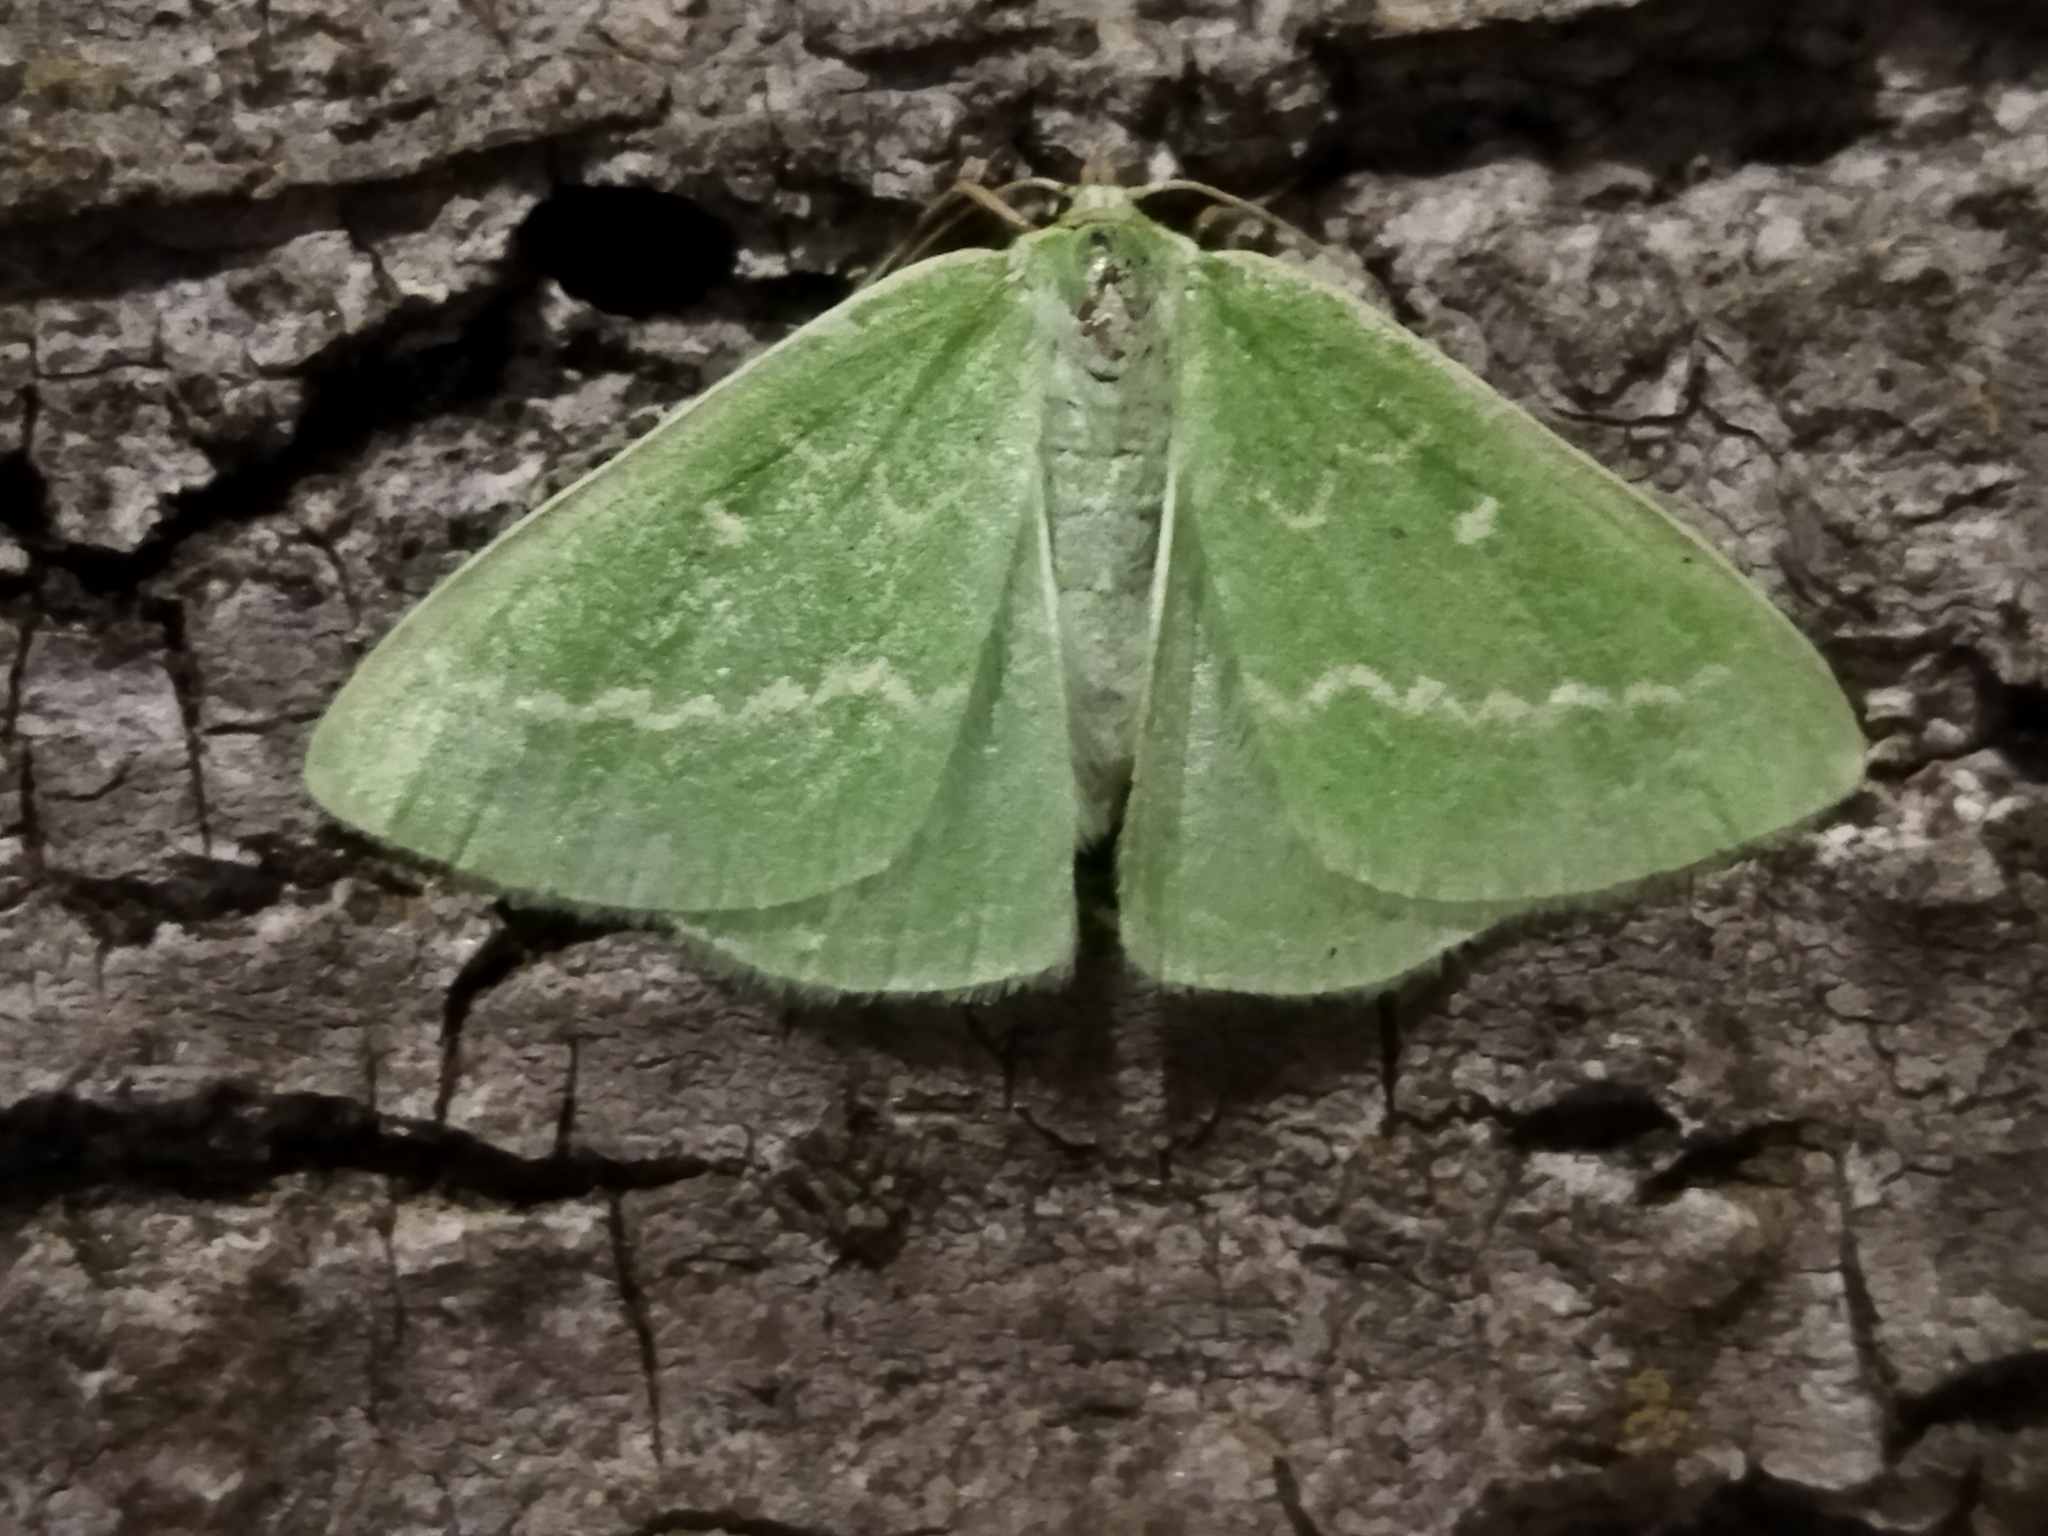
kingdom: Animalia
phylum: Arthropoda
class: Insecta
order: Lepidoptera
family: Geometridae
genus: Thetidia
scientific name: Thetidia smaragdaria
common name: Essex emerald
